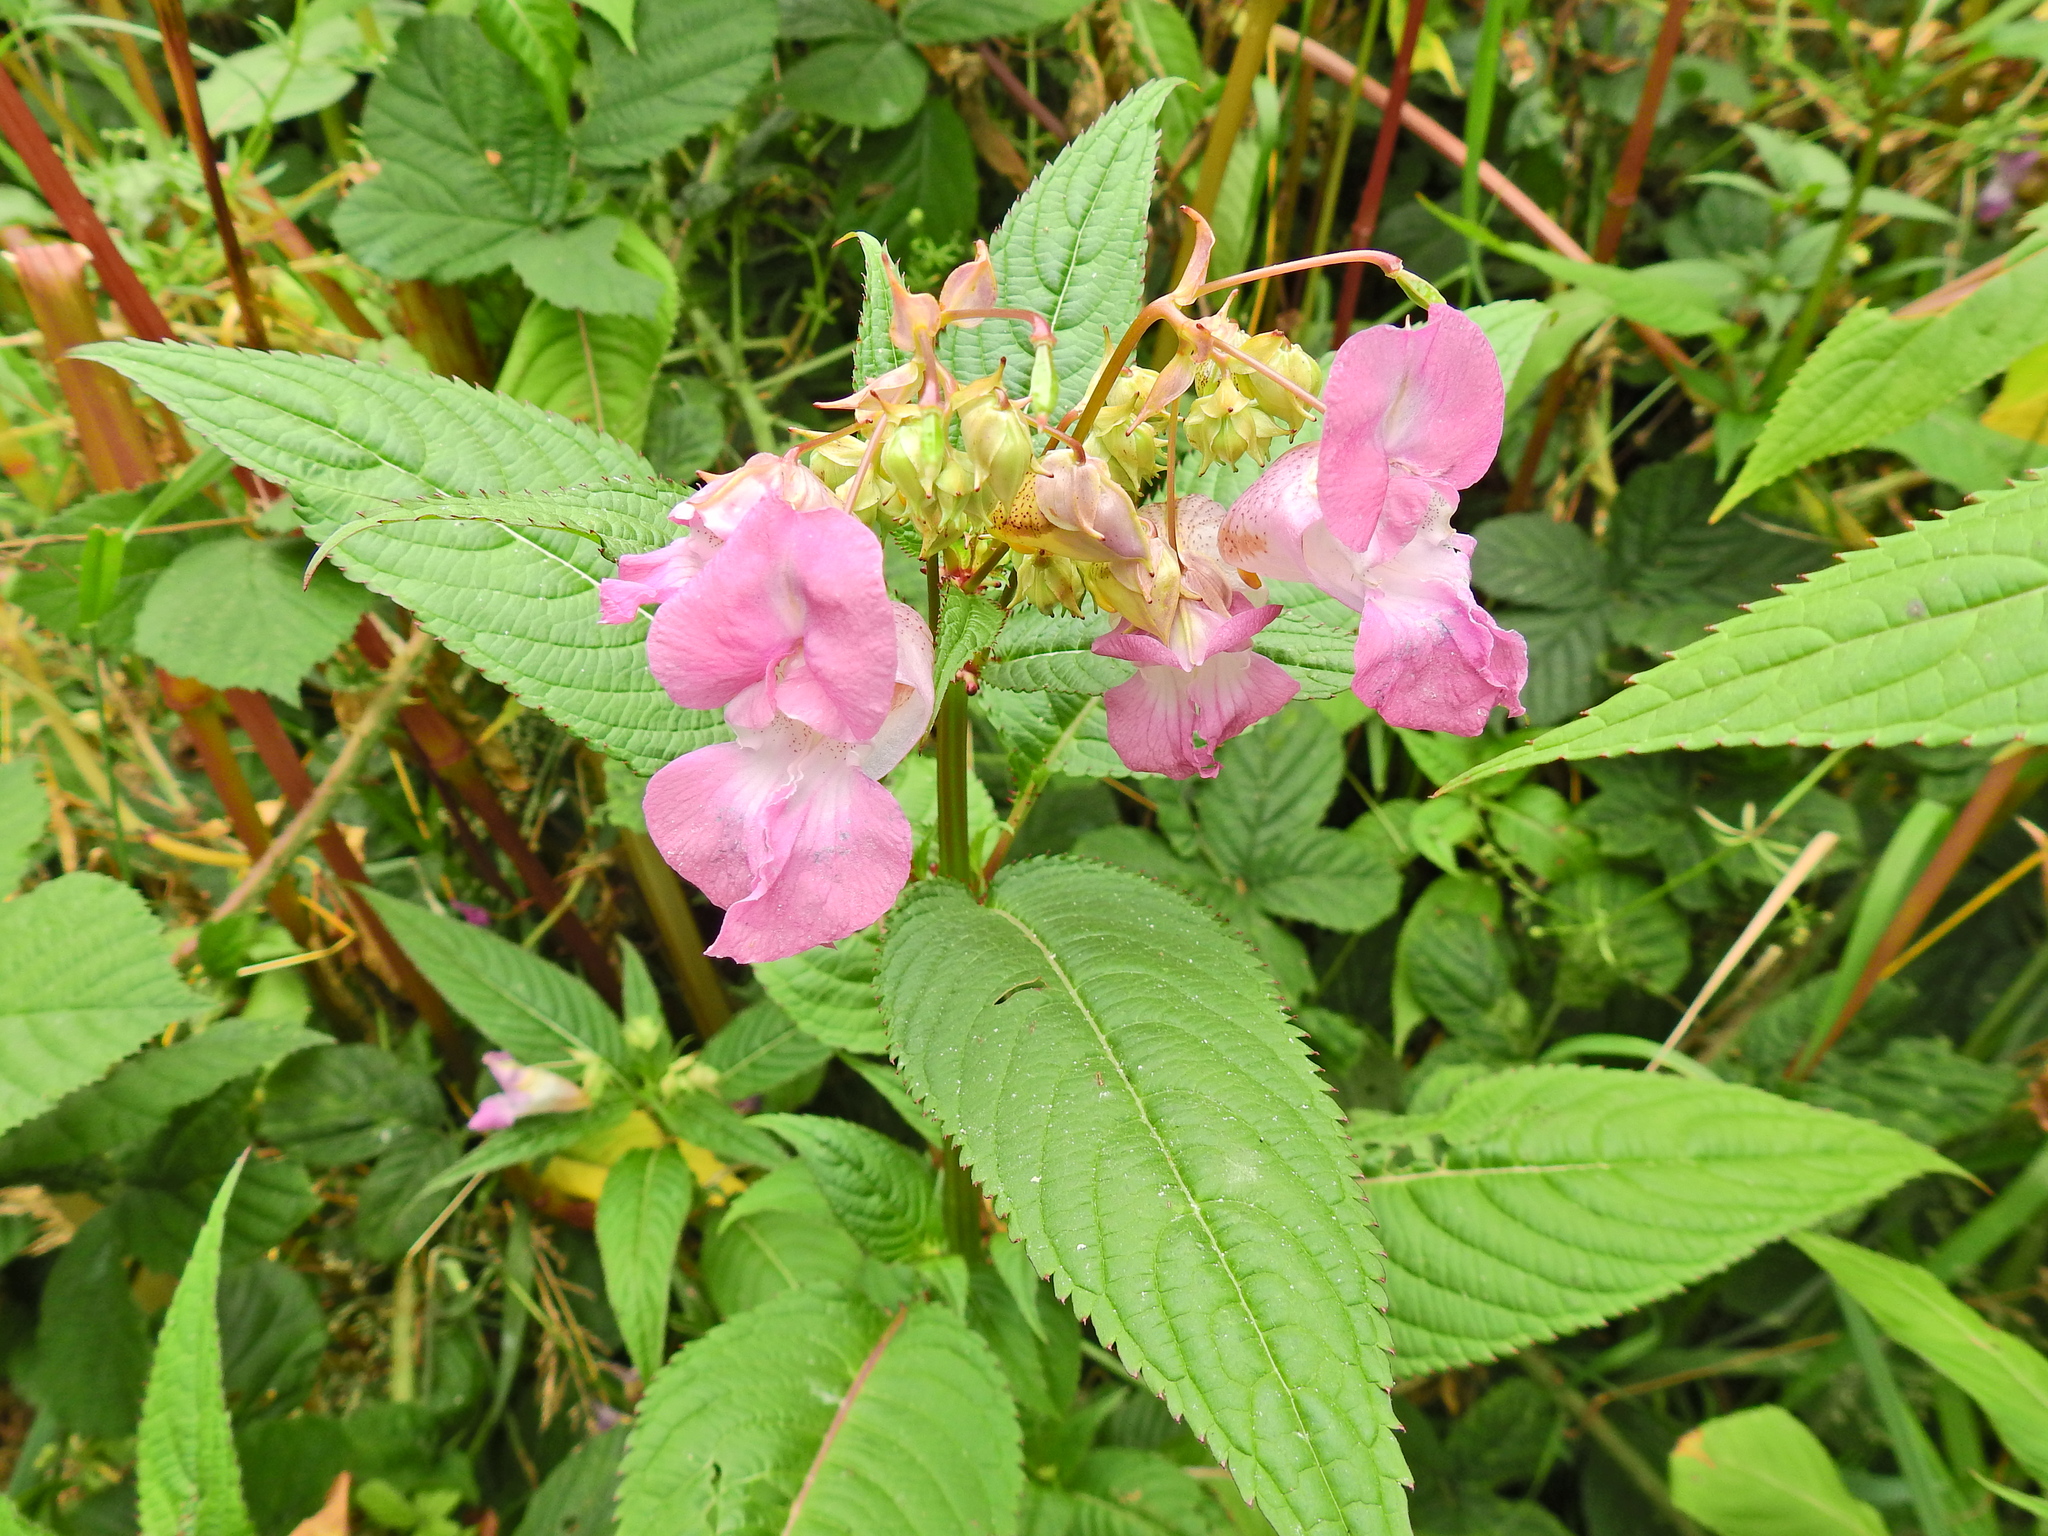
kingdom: Plantae
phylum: Tracheophyta
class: Magnoliopsida
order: Ericales
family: Balsaminaceae
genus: Impatiens
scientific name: Impatiens glandulifera
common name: Himalayan balsam
